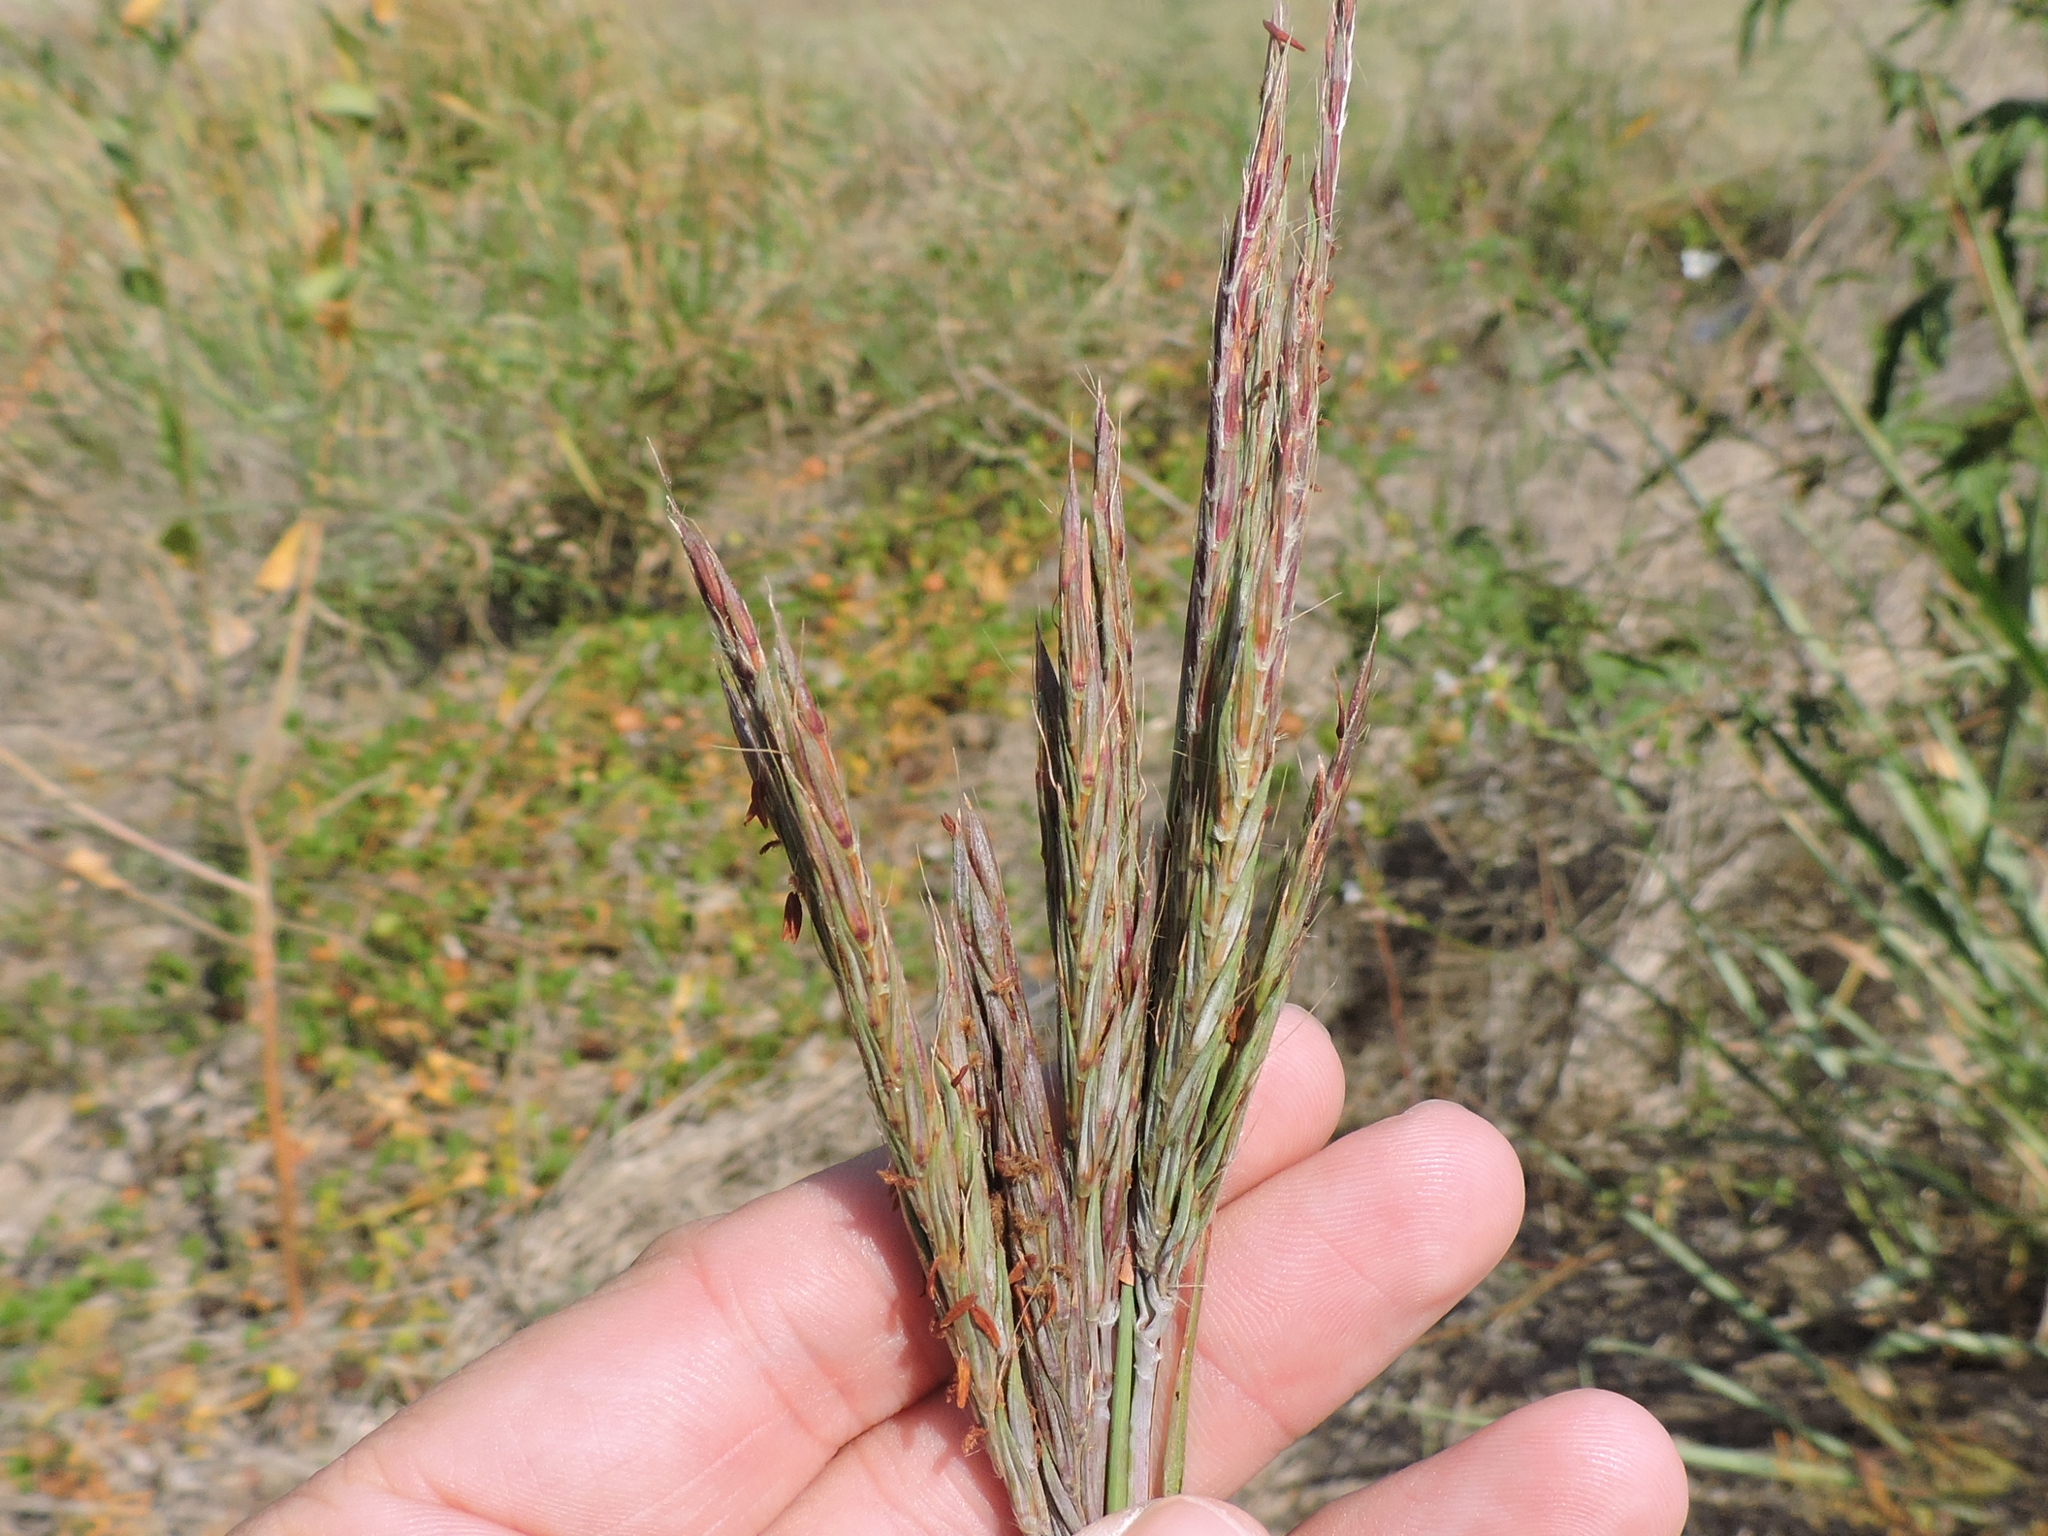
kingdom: Plantae
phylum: Tracheophyta
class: Liliopsida
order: Poales
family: Poaceae
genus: Andropogon
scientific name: Andropogon gerardi
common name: Big bluestem
